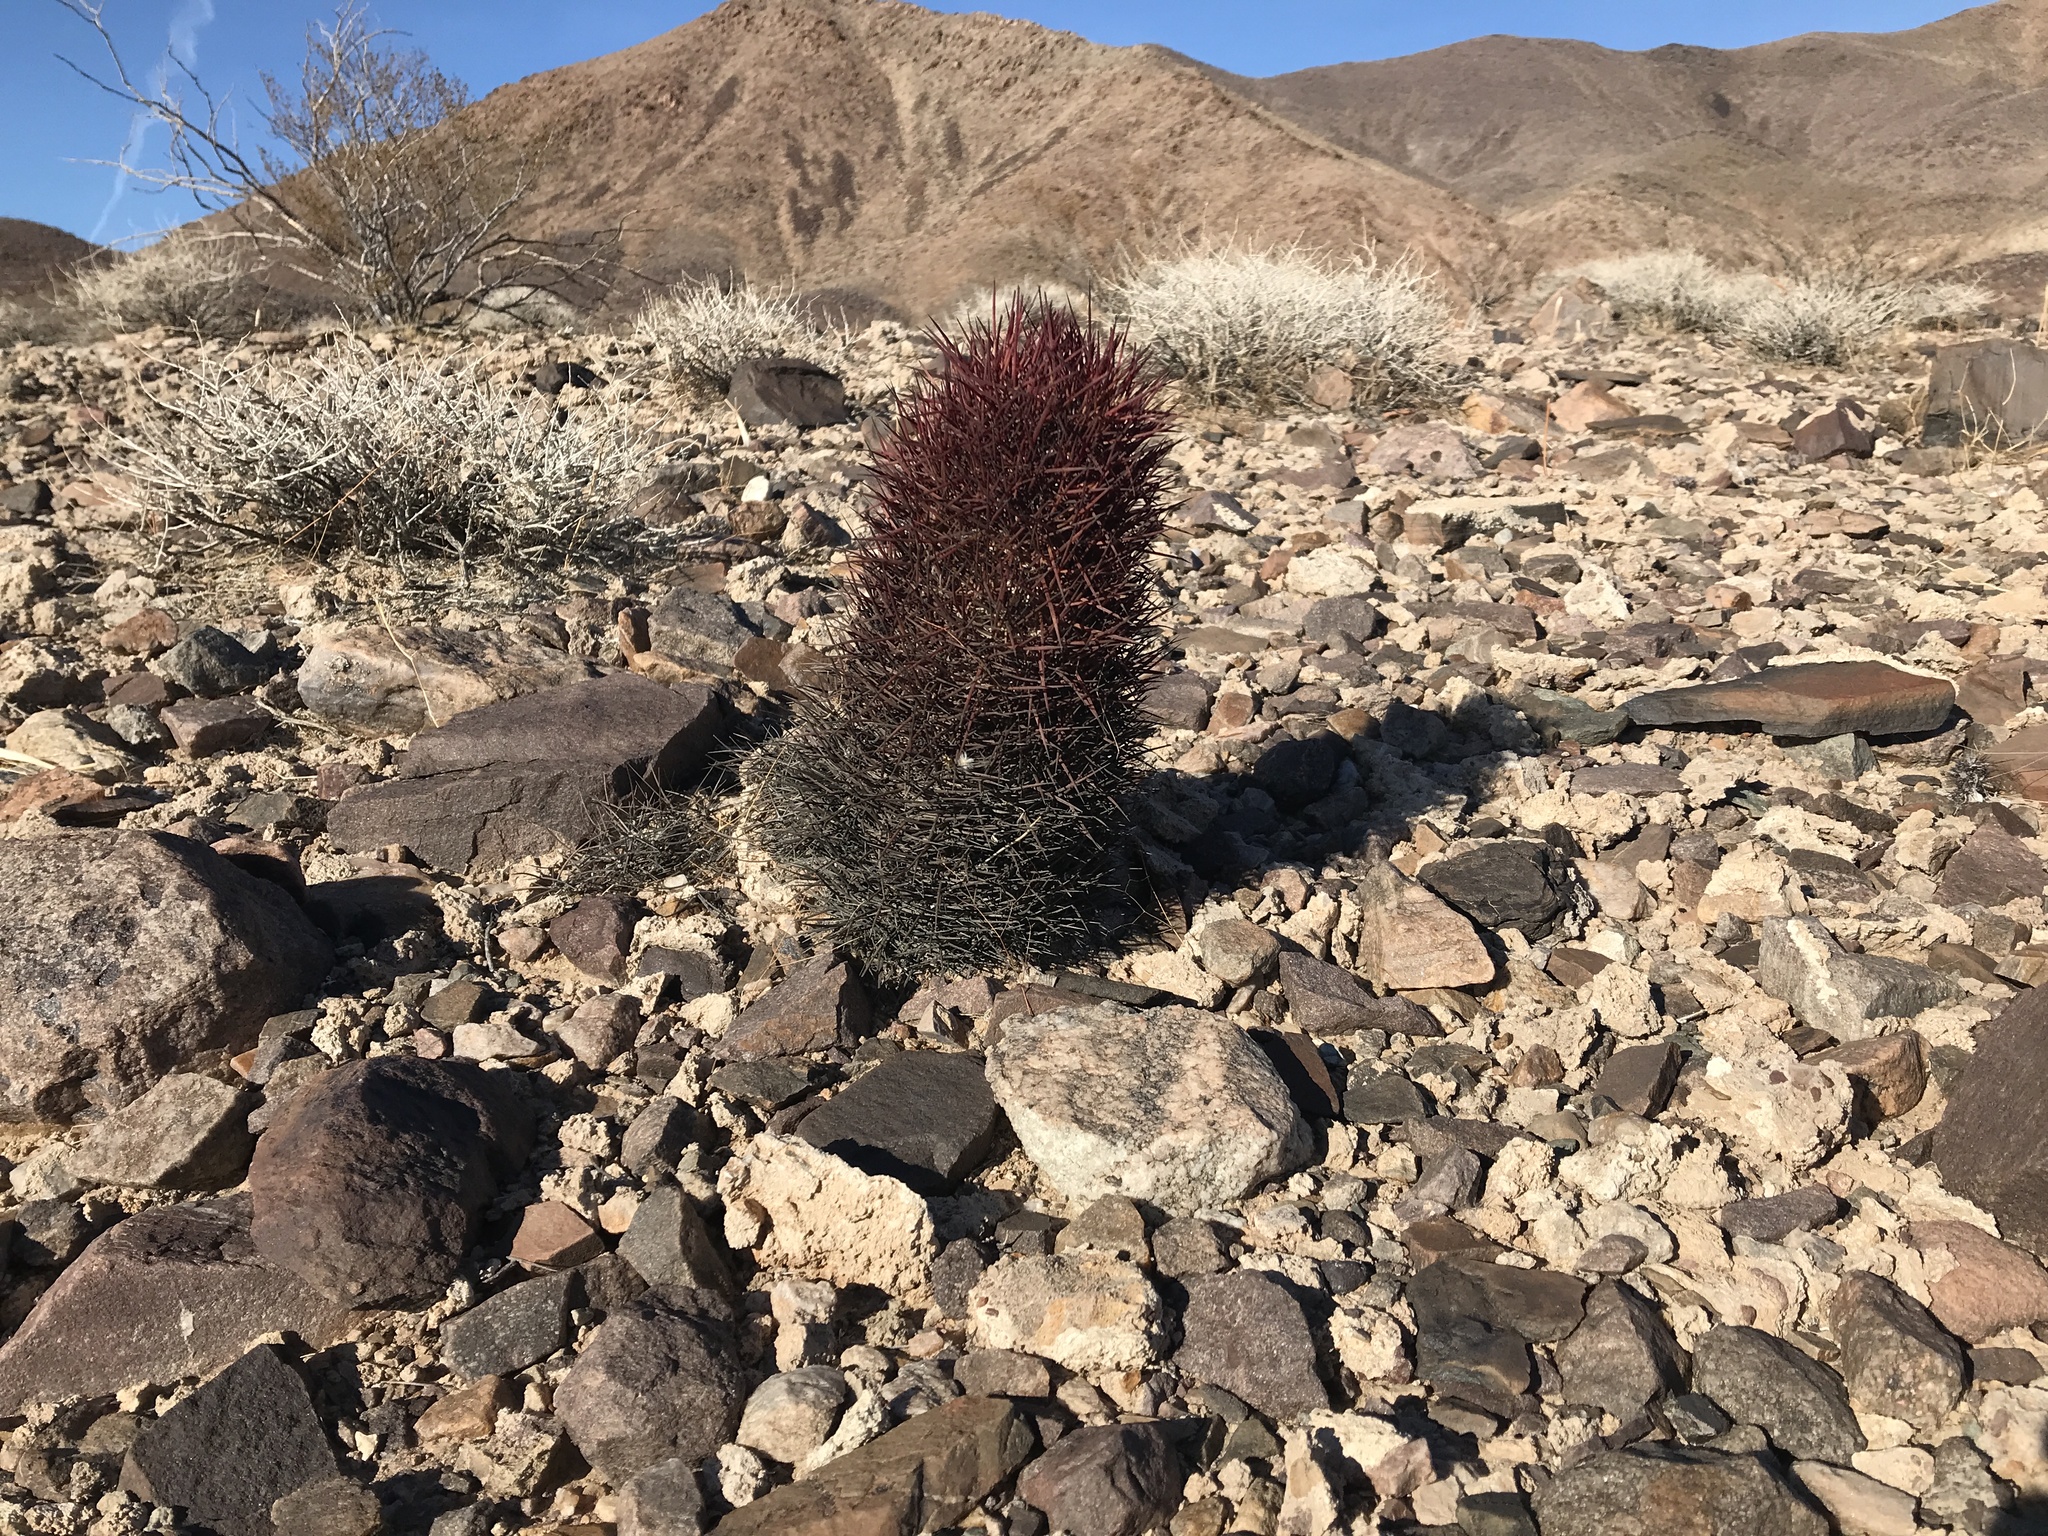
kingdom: Plantae
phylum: Tracheophyta
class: Magnoliopsida
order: Caryophyllales
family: Cactaceae
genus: Sclerocactus
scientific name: Sclerocactus johnsonii
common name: Eight-spine fishhook cactus
